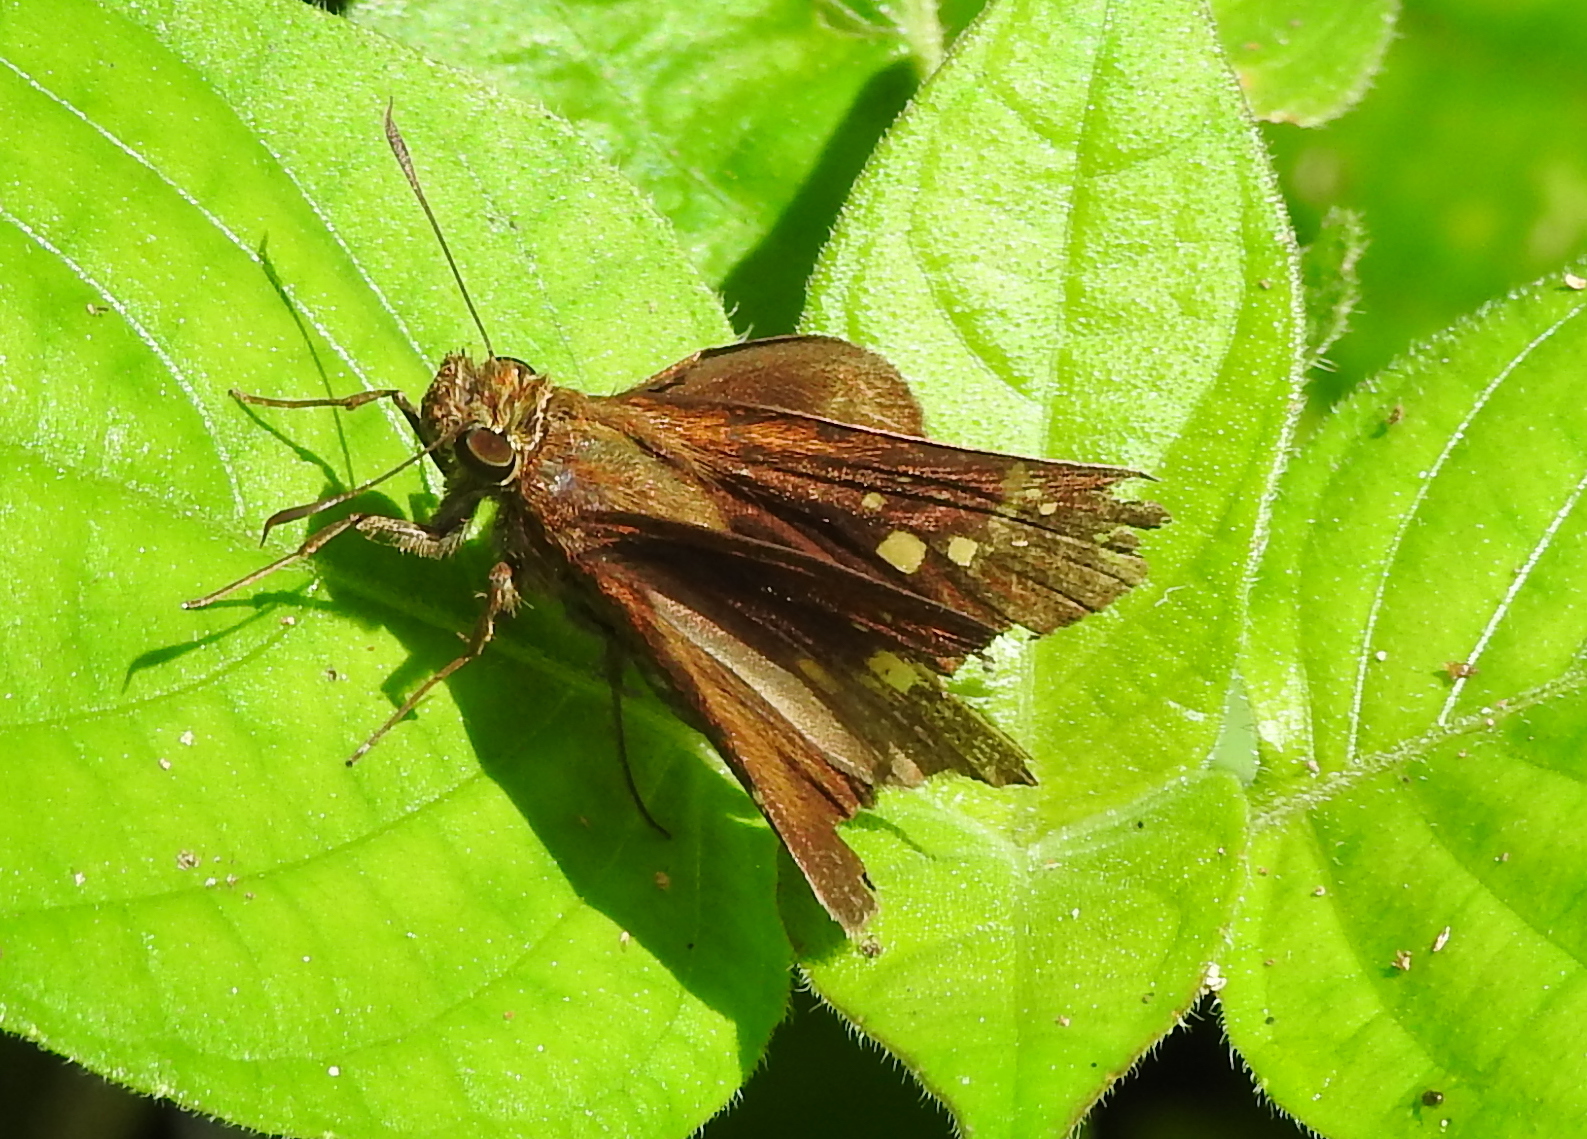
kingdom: Animalia
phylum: Arthropoda
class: Insecta
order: Lepidoptera
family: Hesperiidae
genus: Caltoris
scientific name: Caltoris cormasa
